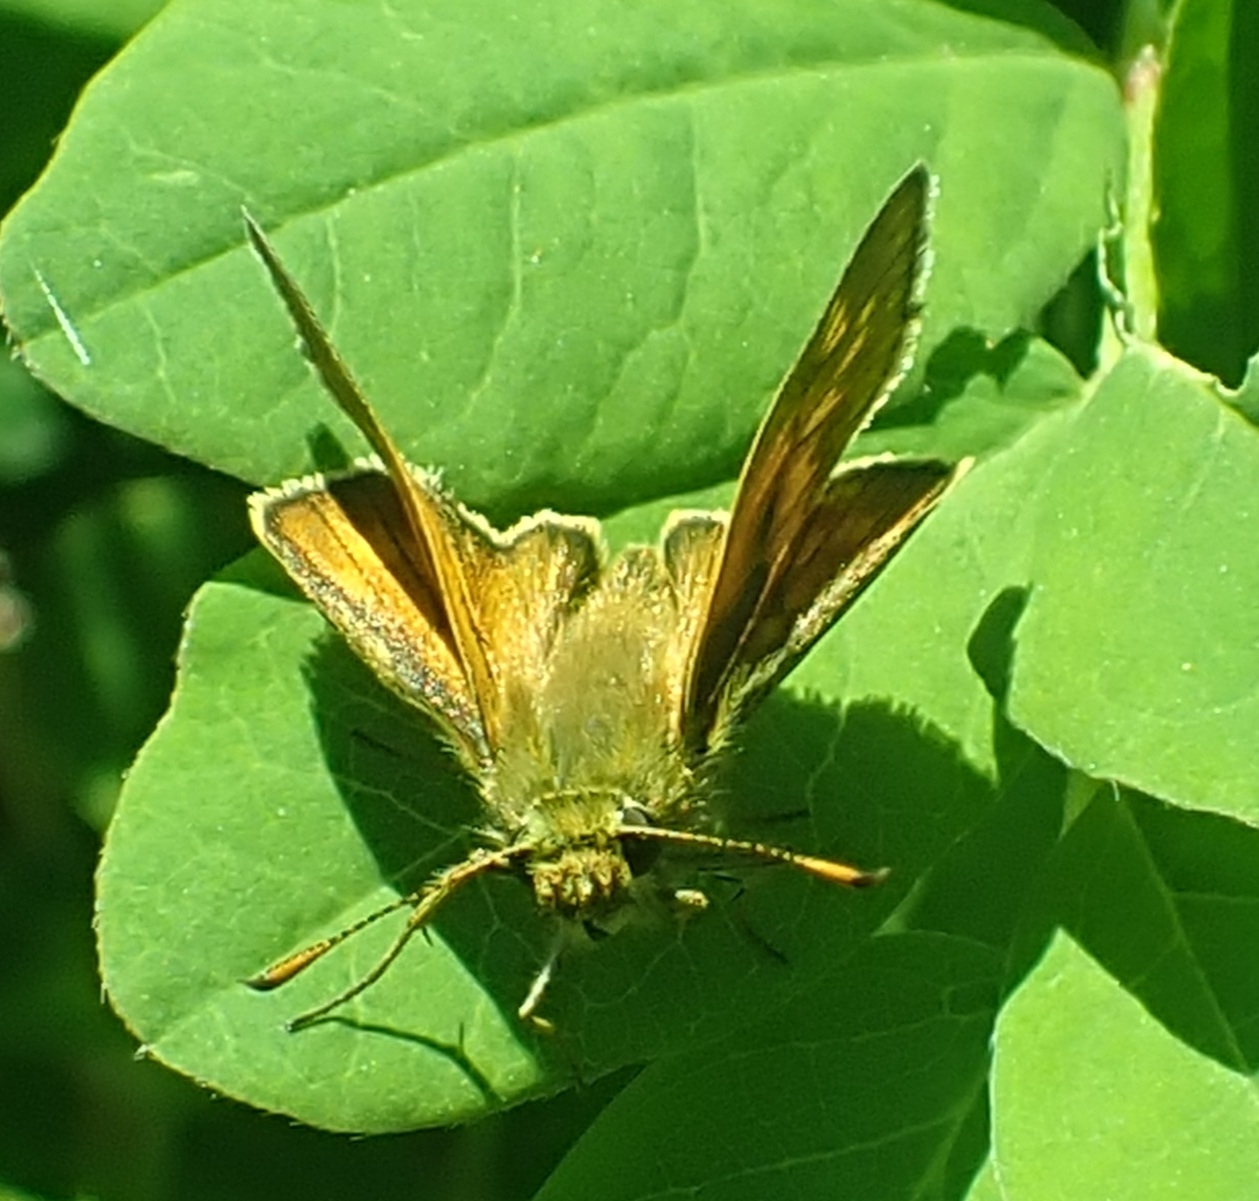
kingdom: Animalia
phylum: Arthropoda
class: Insecta
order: Lepidoptera
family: Hesperiidae
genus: Ochlodes
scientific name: Ochlodes venata
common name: Large skipper
